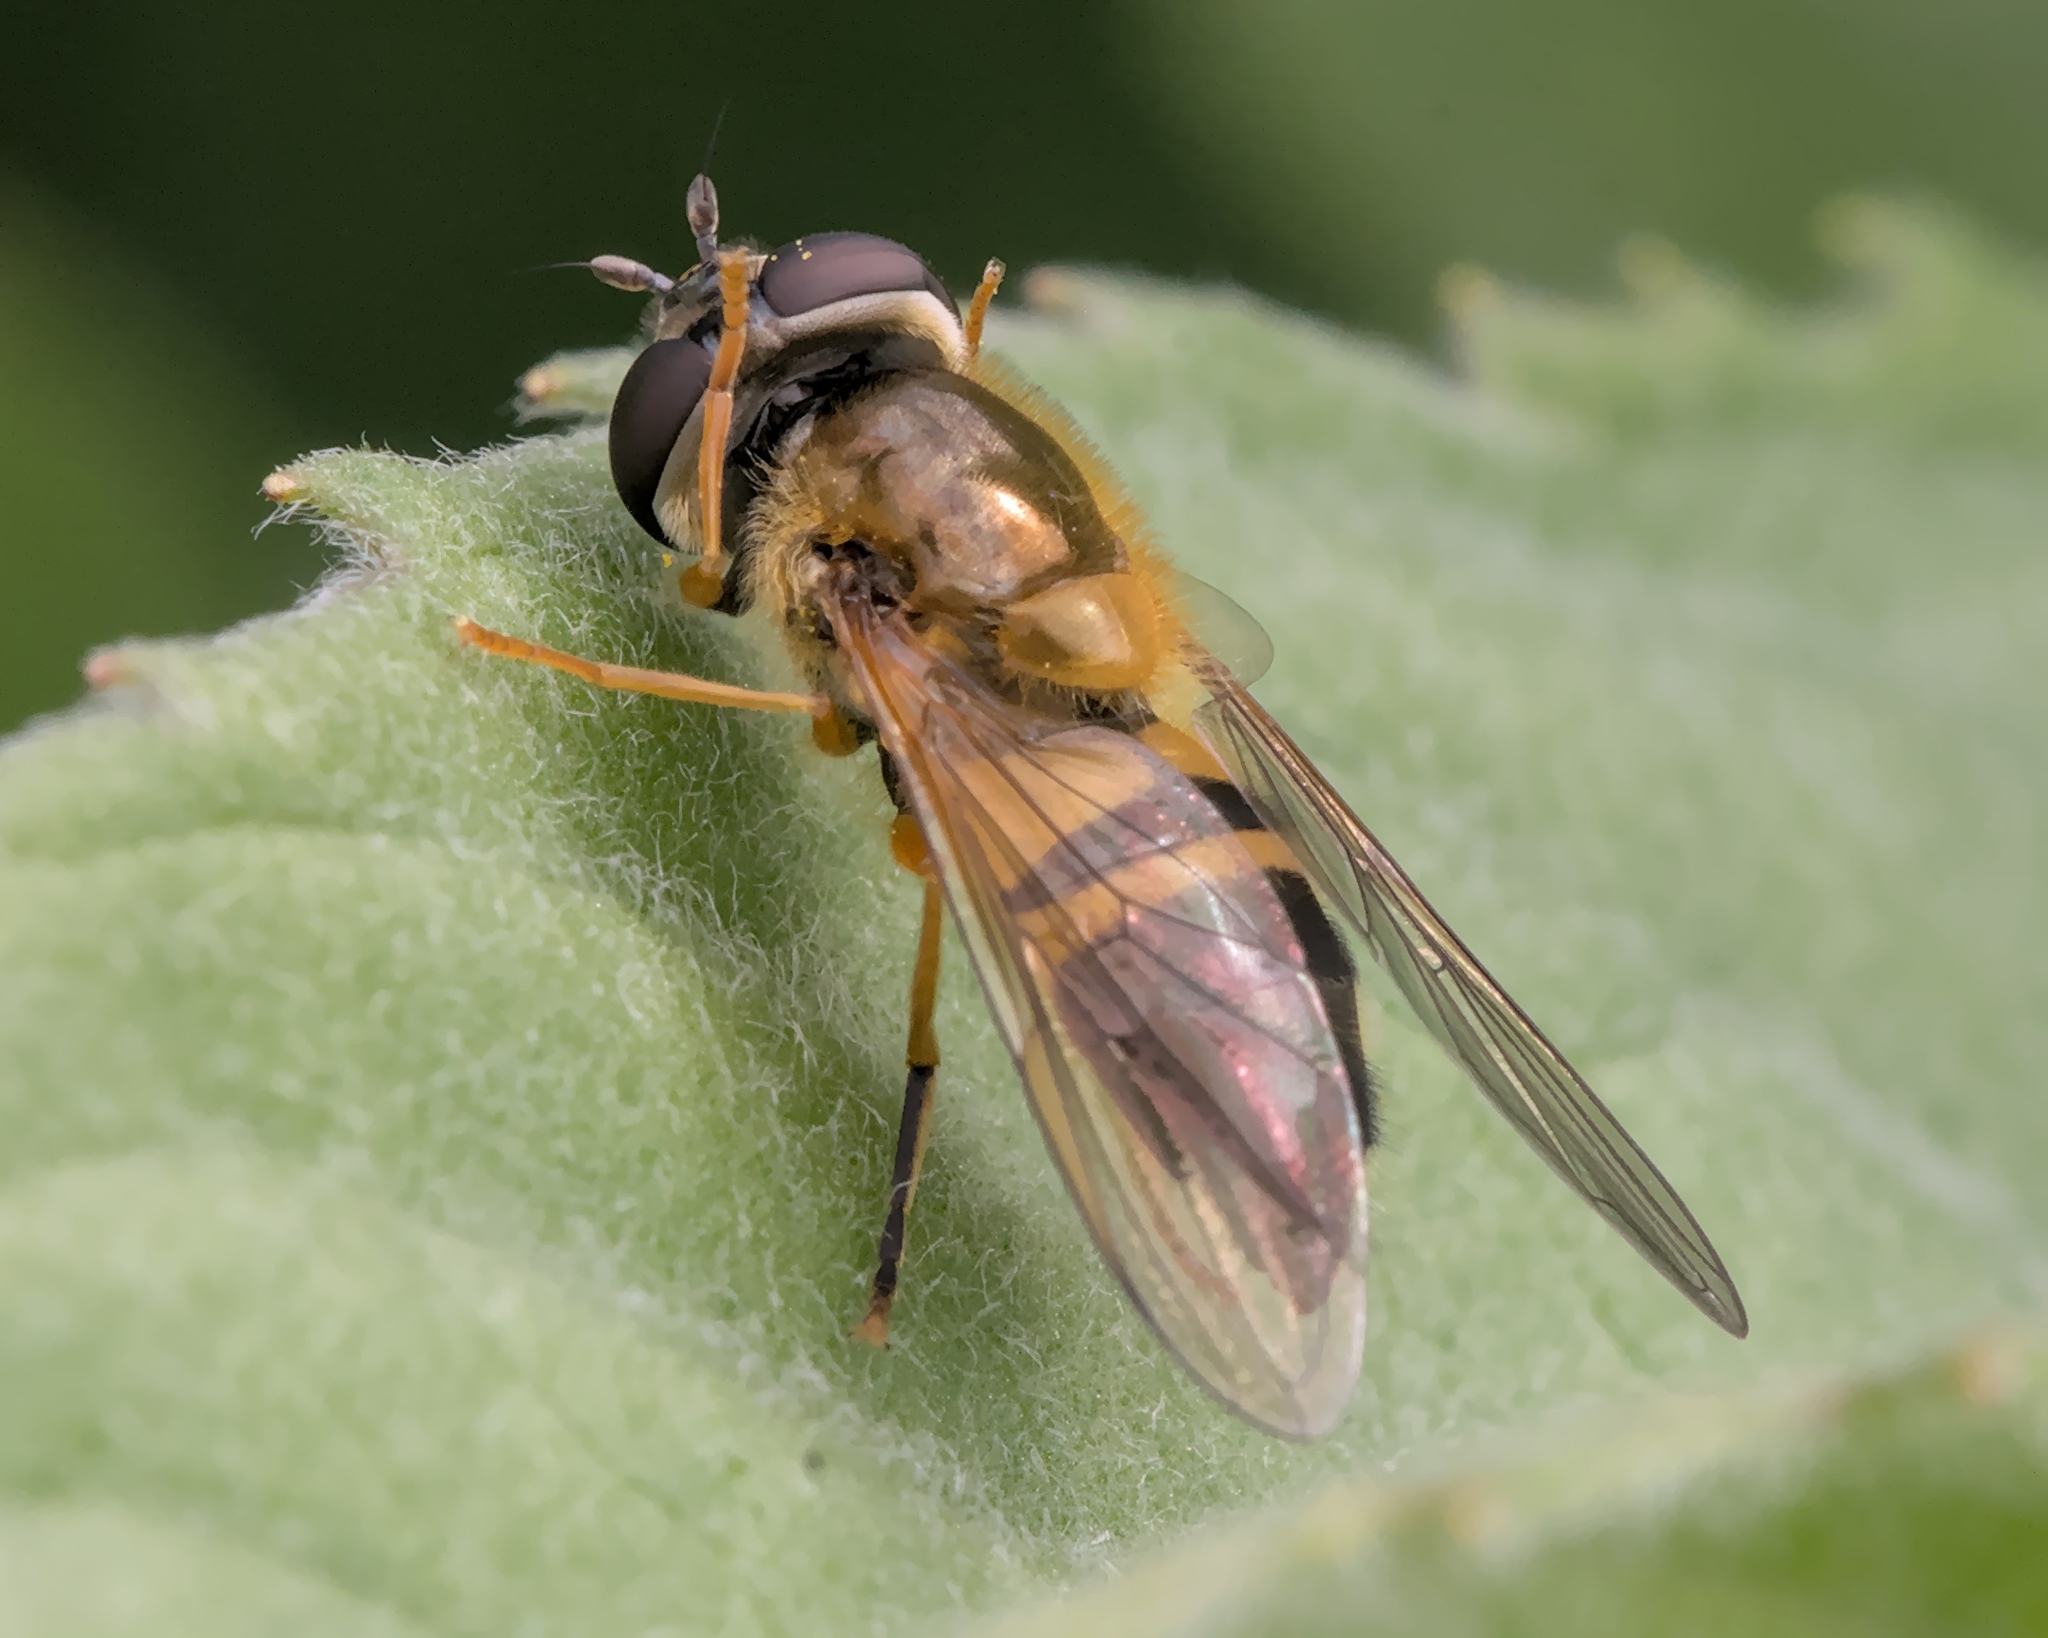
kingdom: Animalia
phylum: Arthropoda
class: Insecta
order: Diptera
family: Syrphidae
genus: Epistrophe
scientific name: Epistrophe eligans
